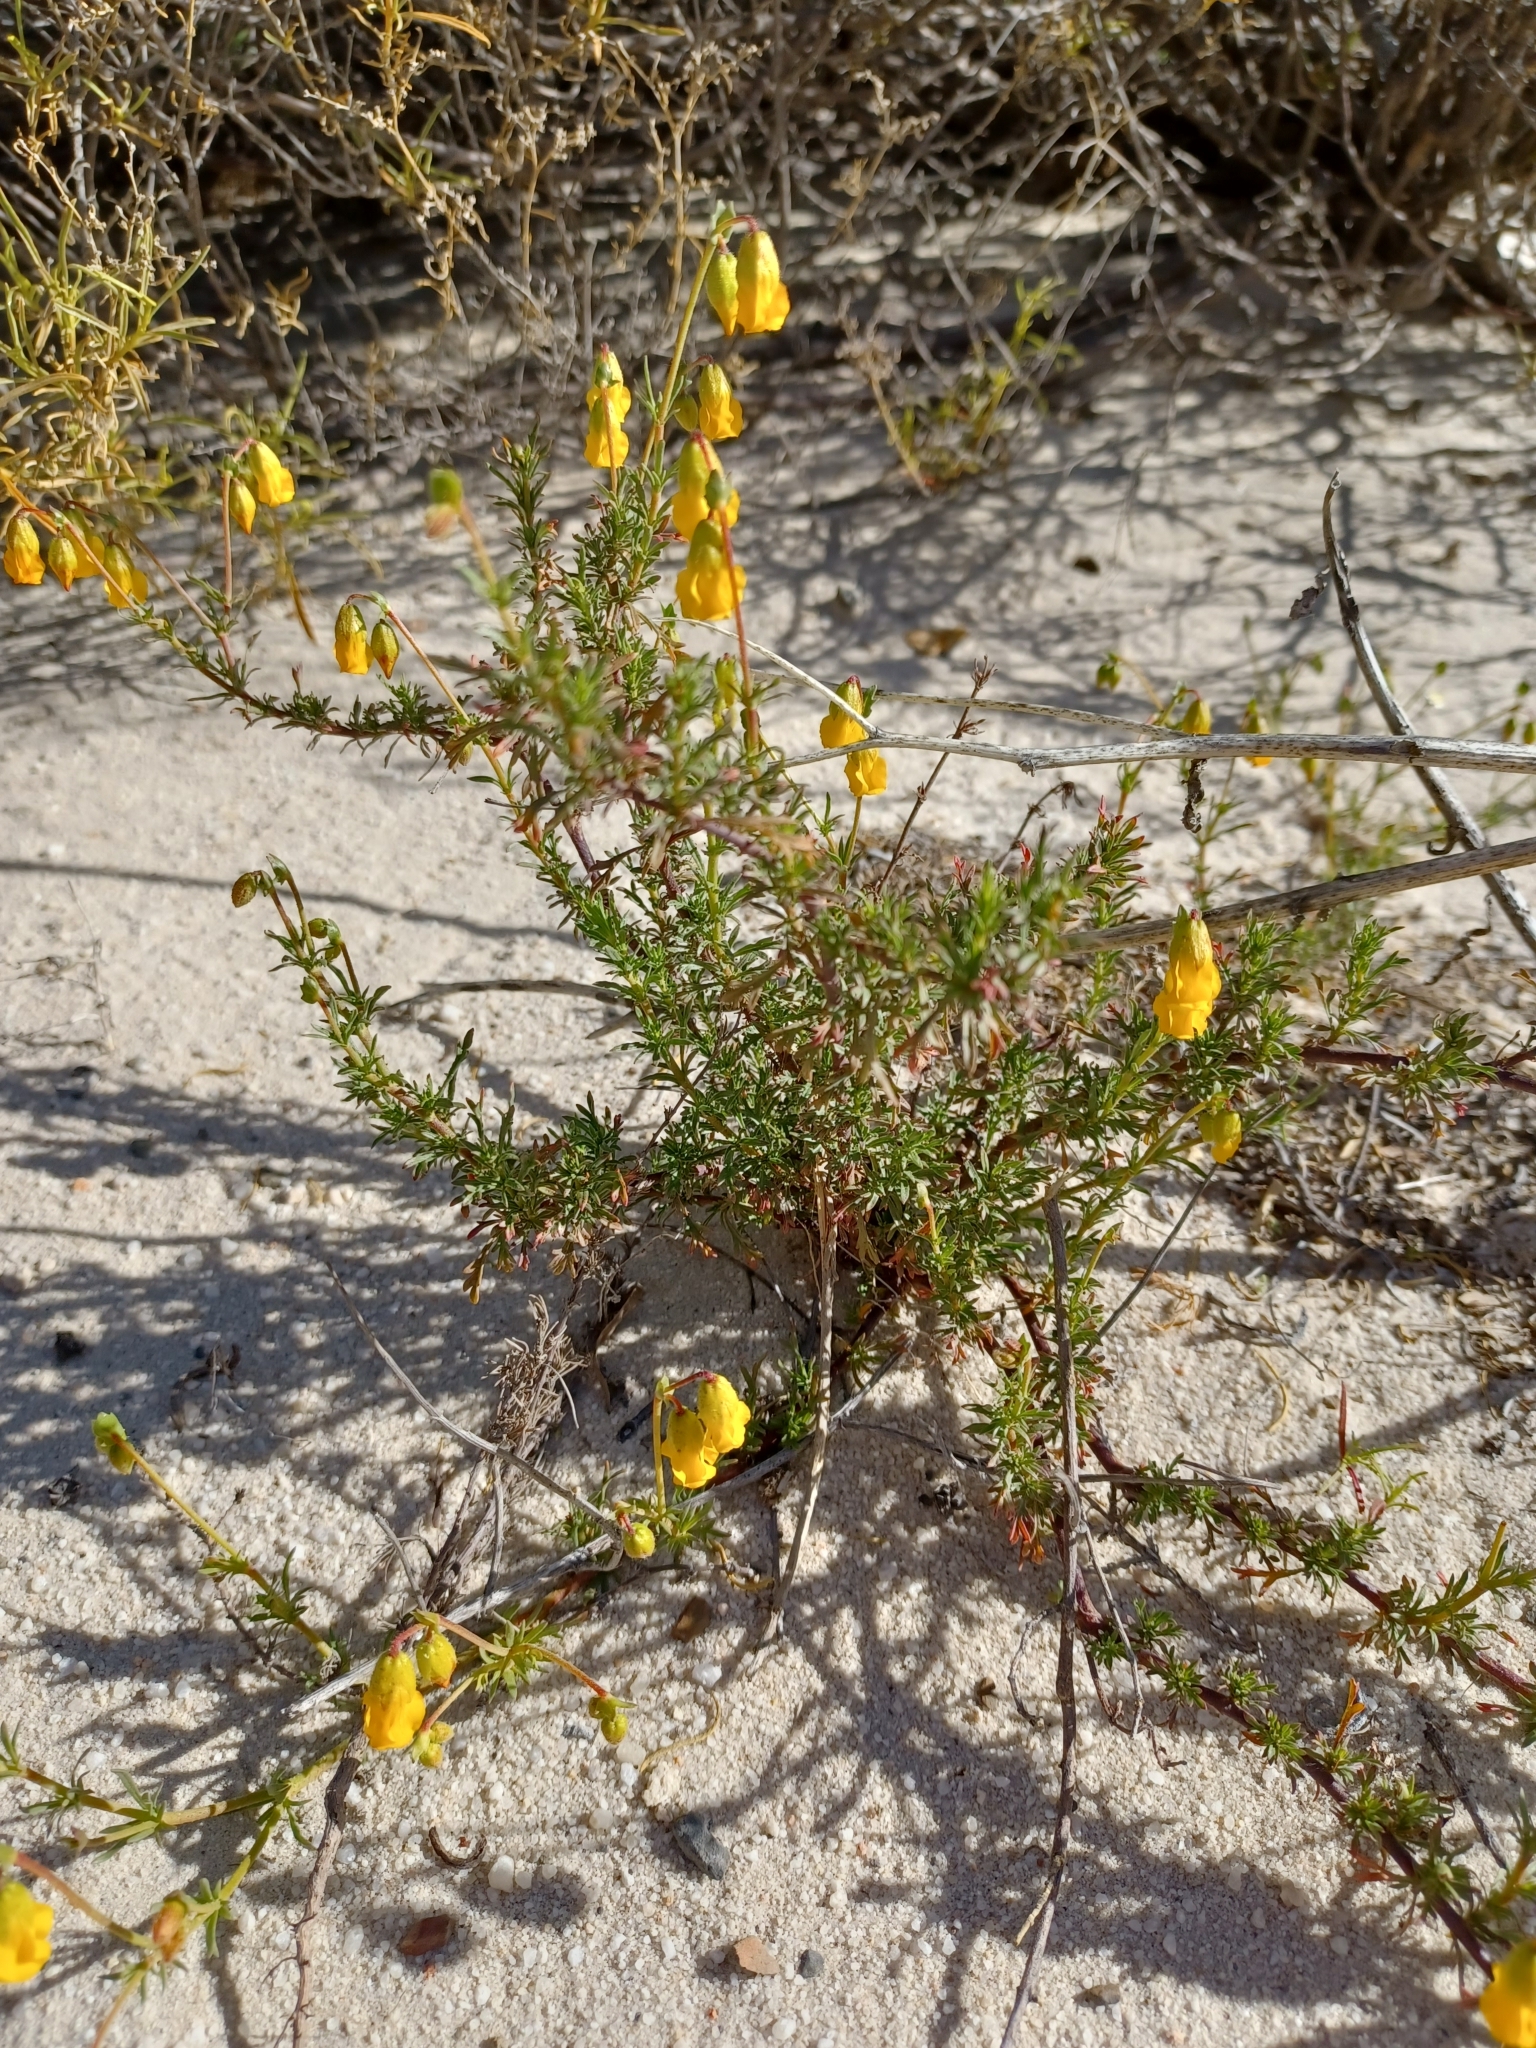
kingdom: Plantae
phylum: Tracheophyta
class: Magnoliopsida
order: Malvales
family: Malvaceae
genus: Hermannia
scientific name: Hermannia pinnata
